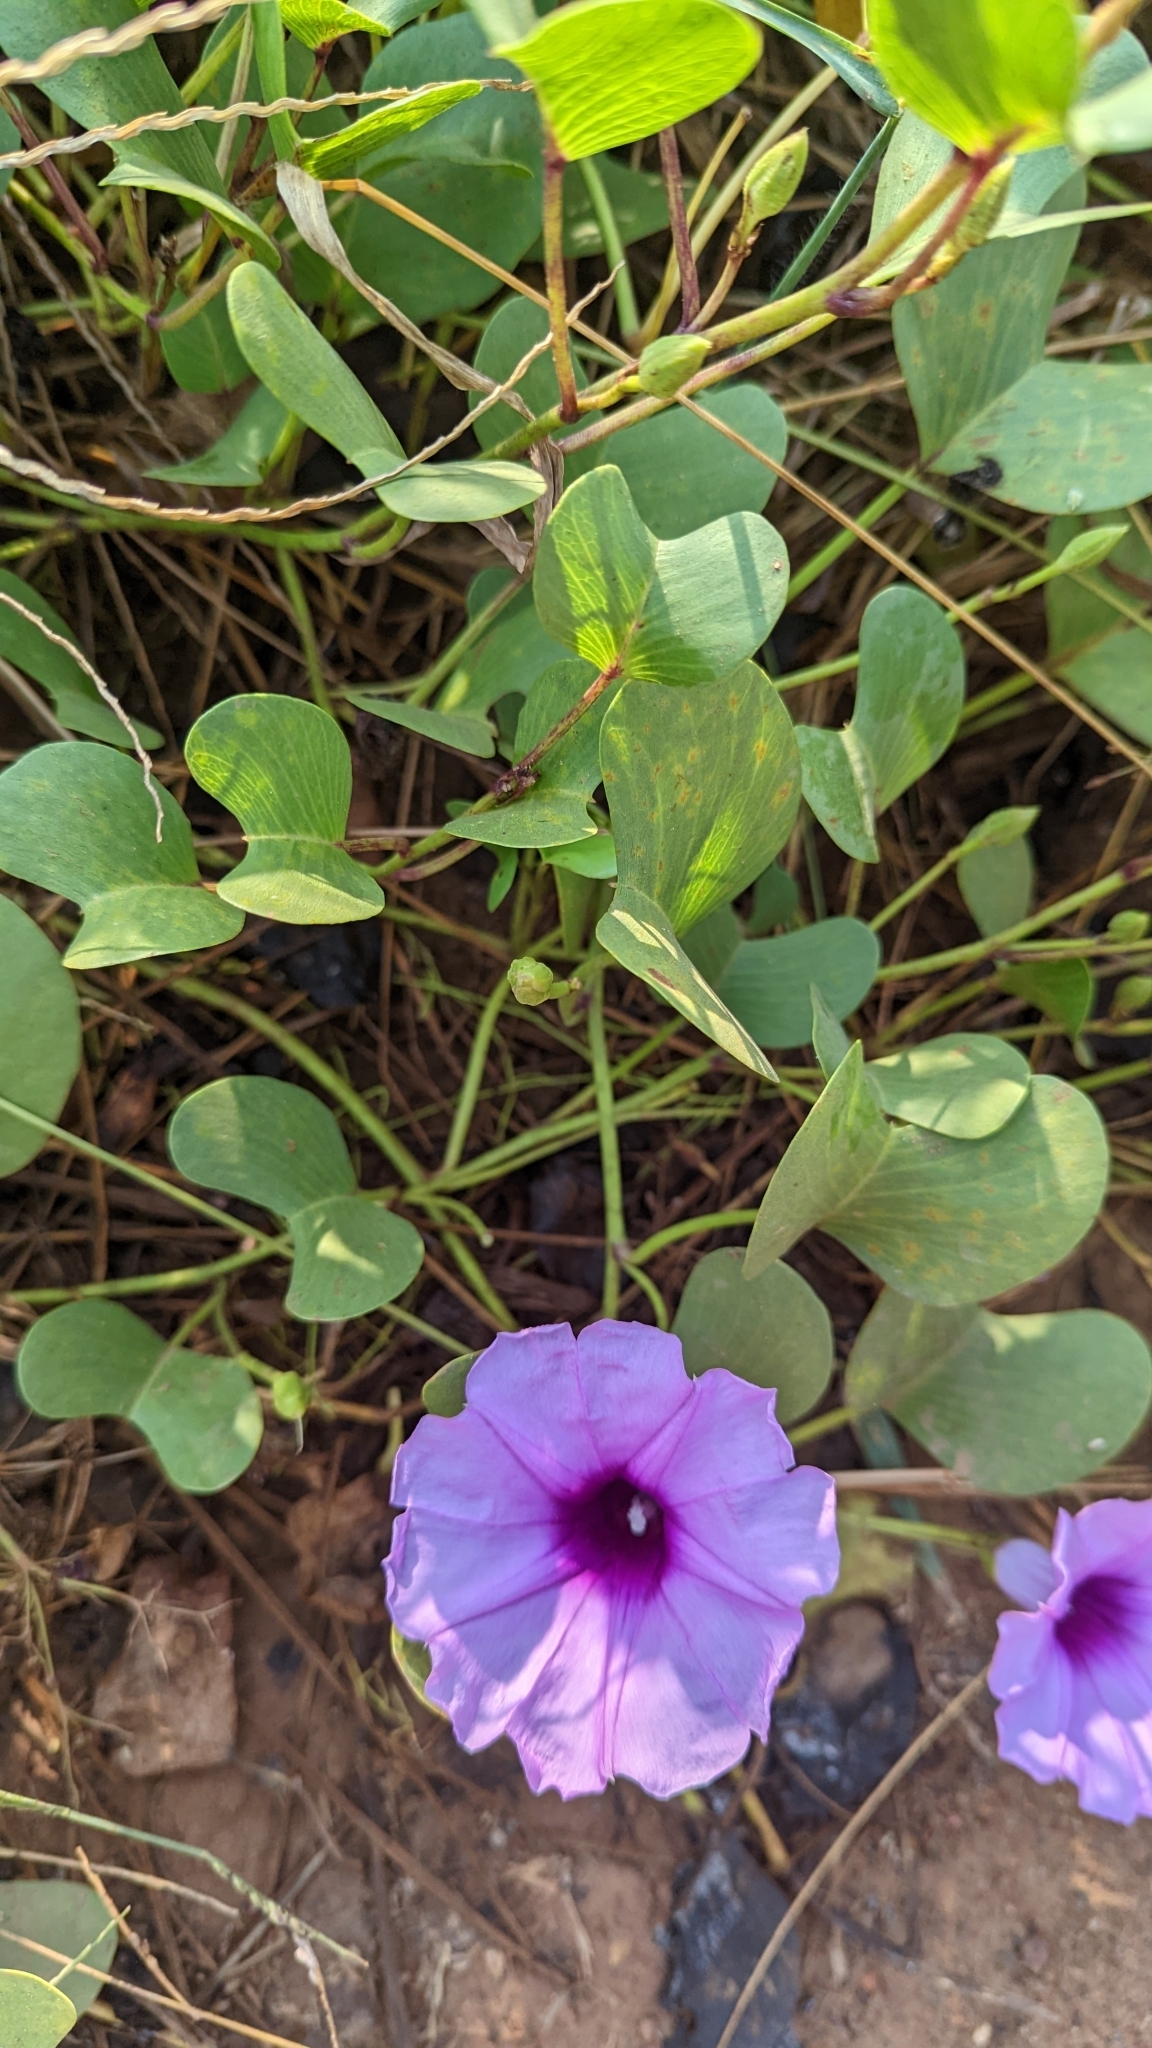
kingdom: Plantae
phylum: Tracheophyta
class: Magnoliopsida
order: Solanales
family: Convolvulaceae
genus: Ipomoea
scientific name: Ipomoea pes-caprae
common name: Beach morning glory
